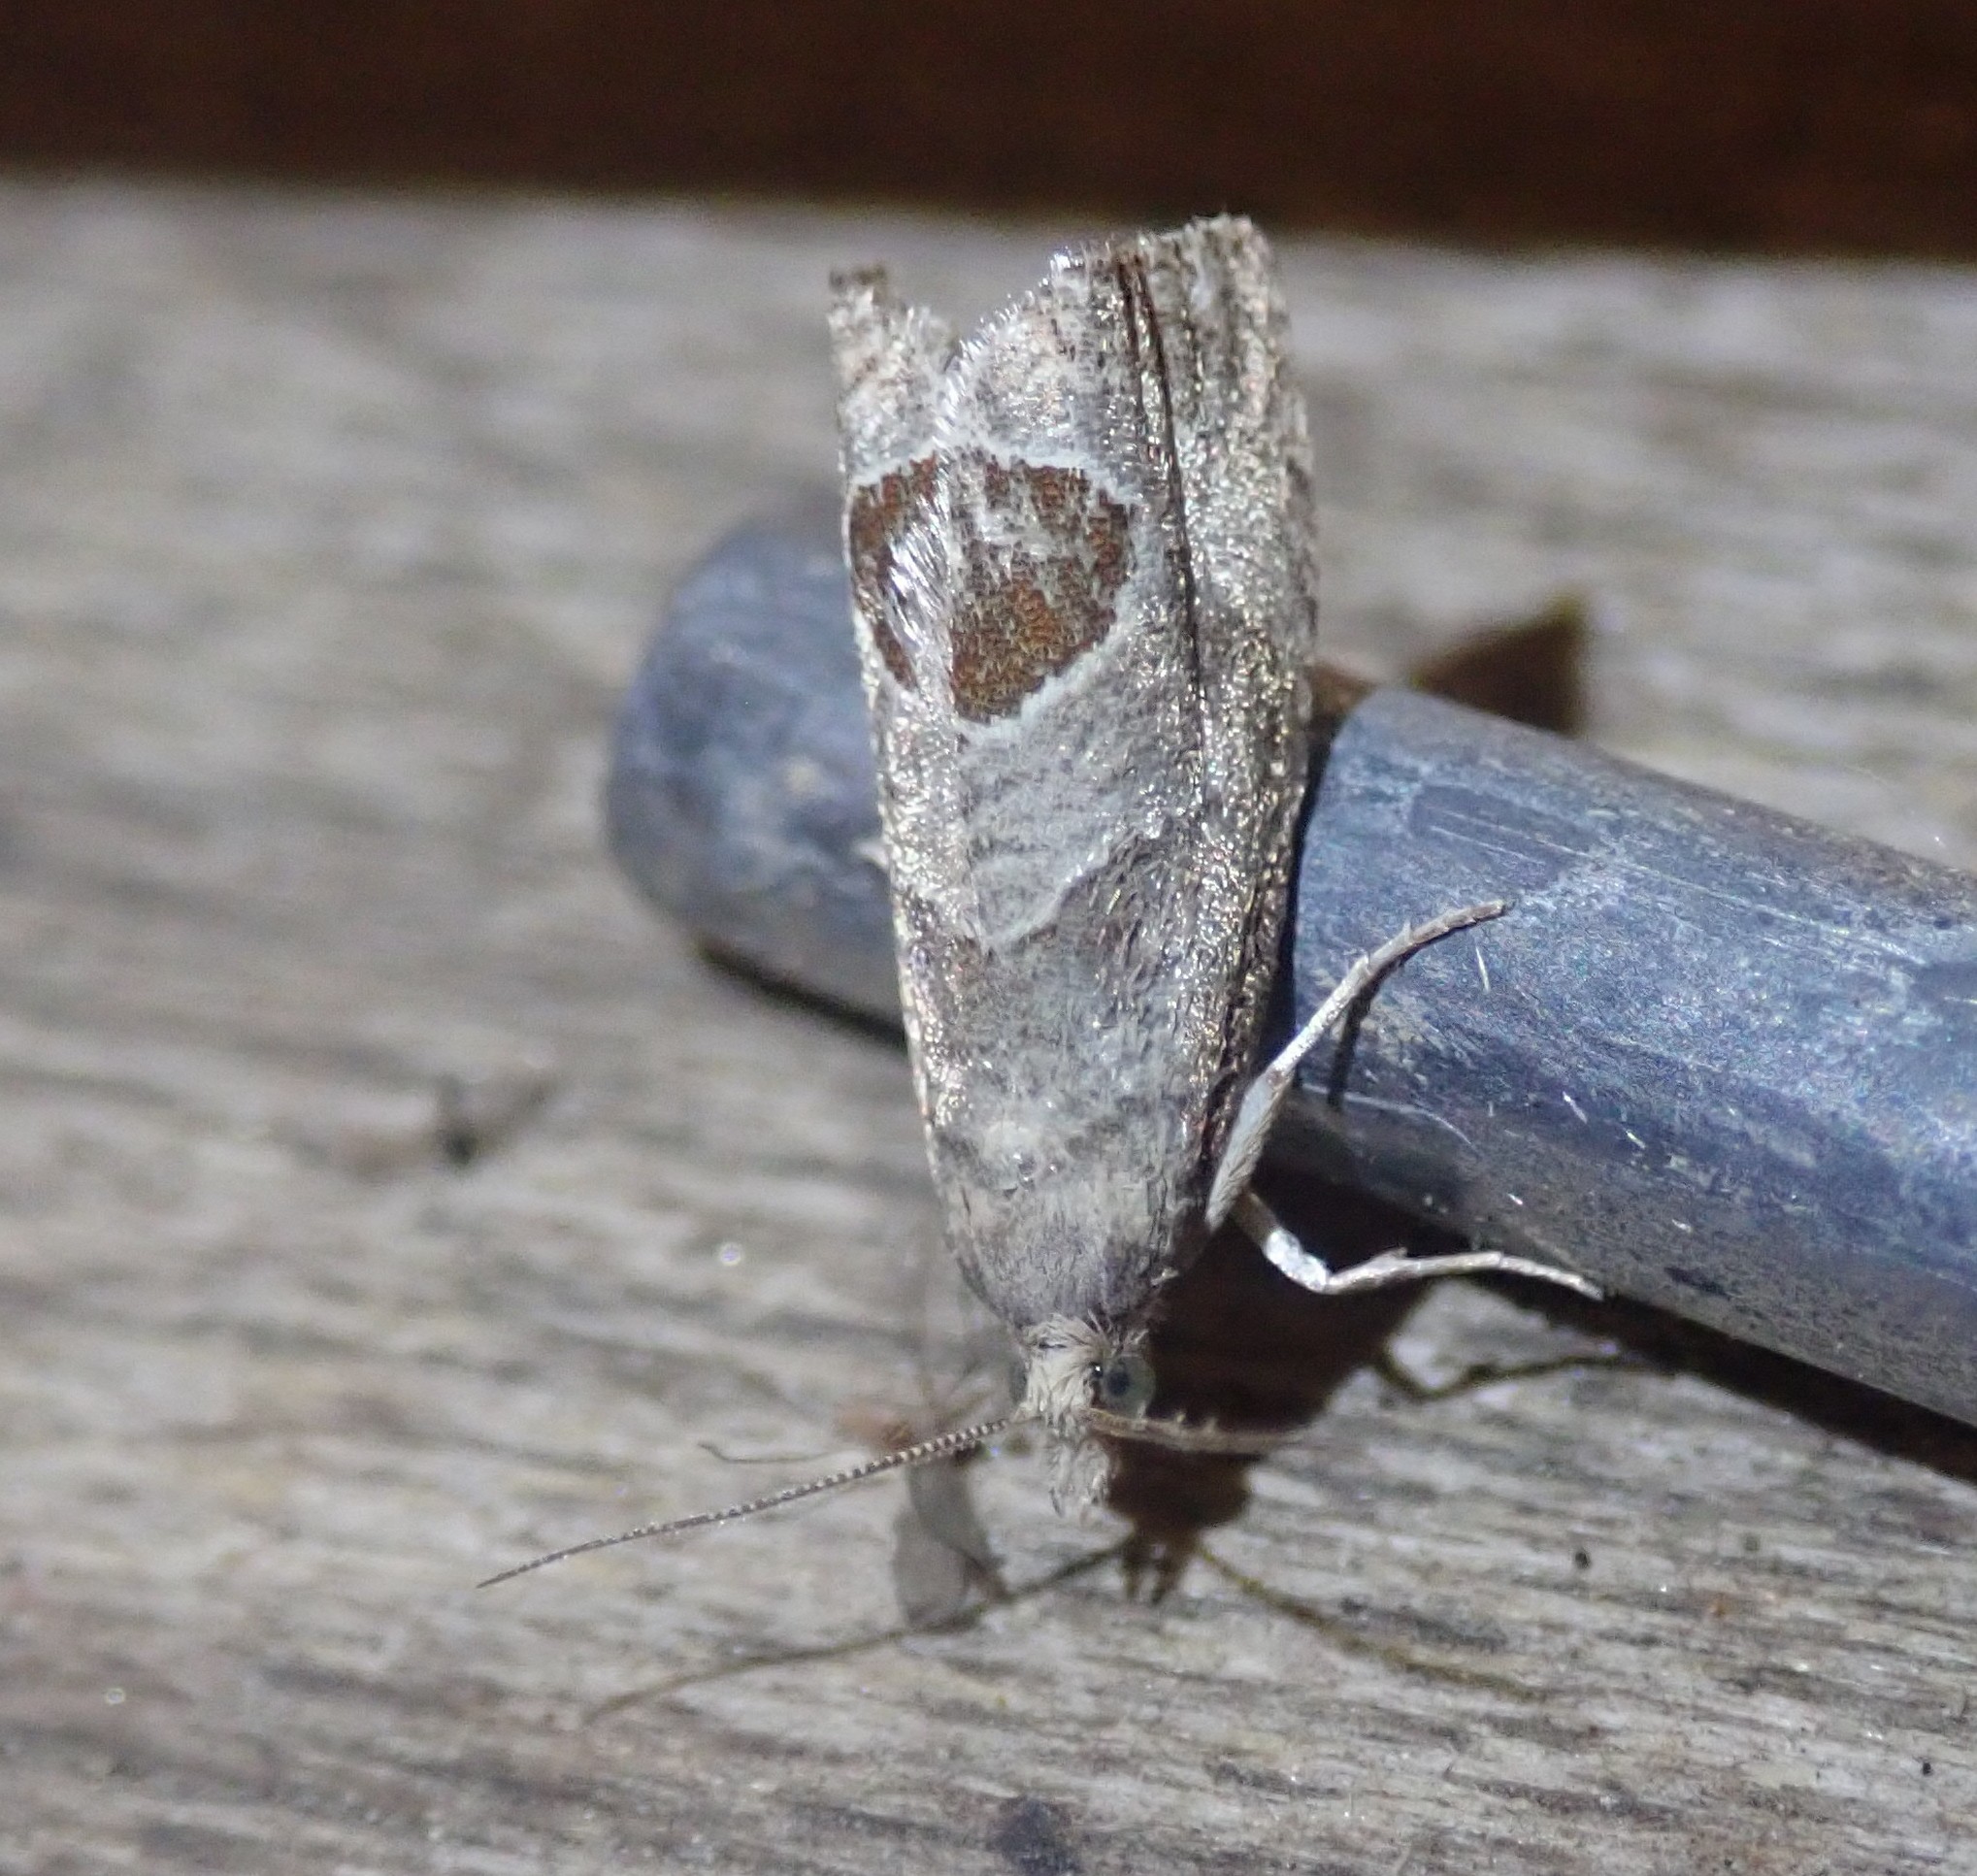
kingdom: Animalia
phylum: Arthropoda
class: Insecta
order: Lepidoptera
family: Tortricidae
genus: Notocelia
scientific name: Notocelia uddmanniana
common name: Bramble shoot moth
